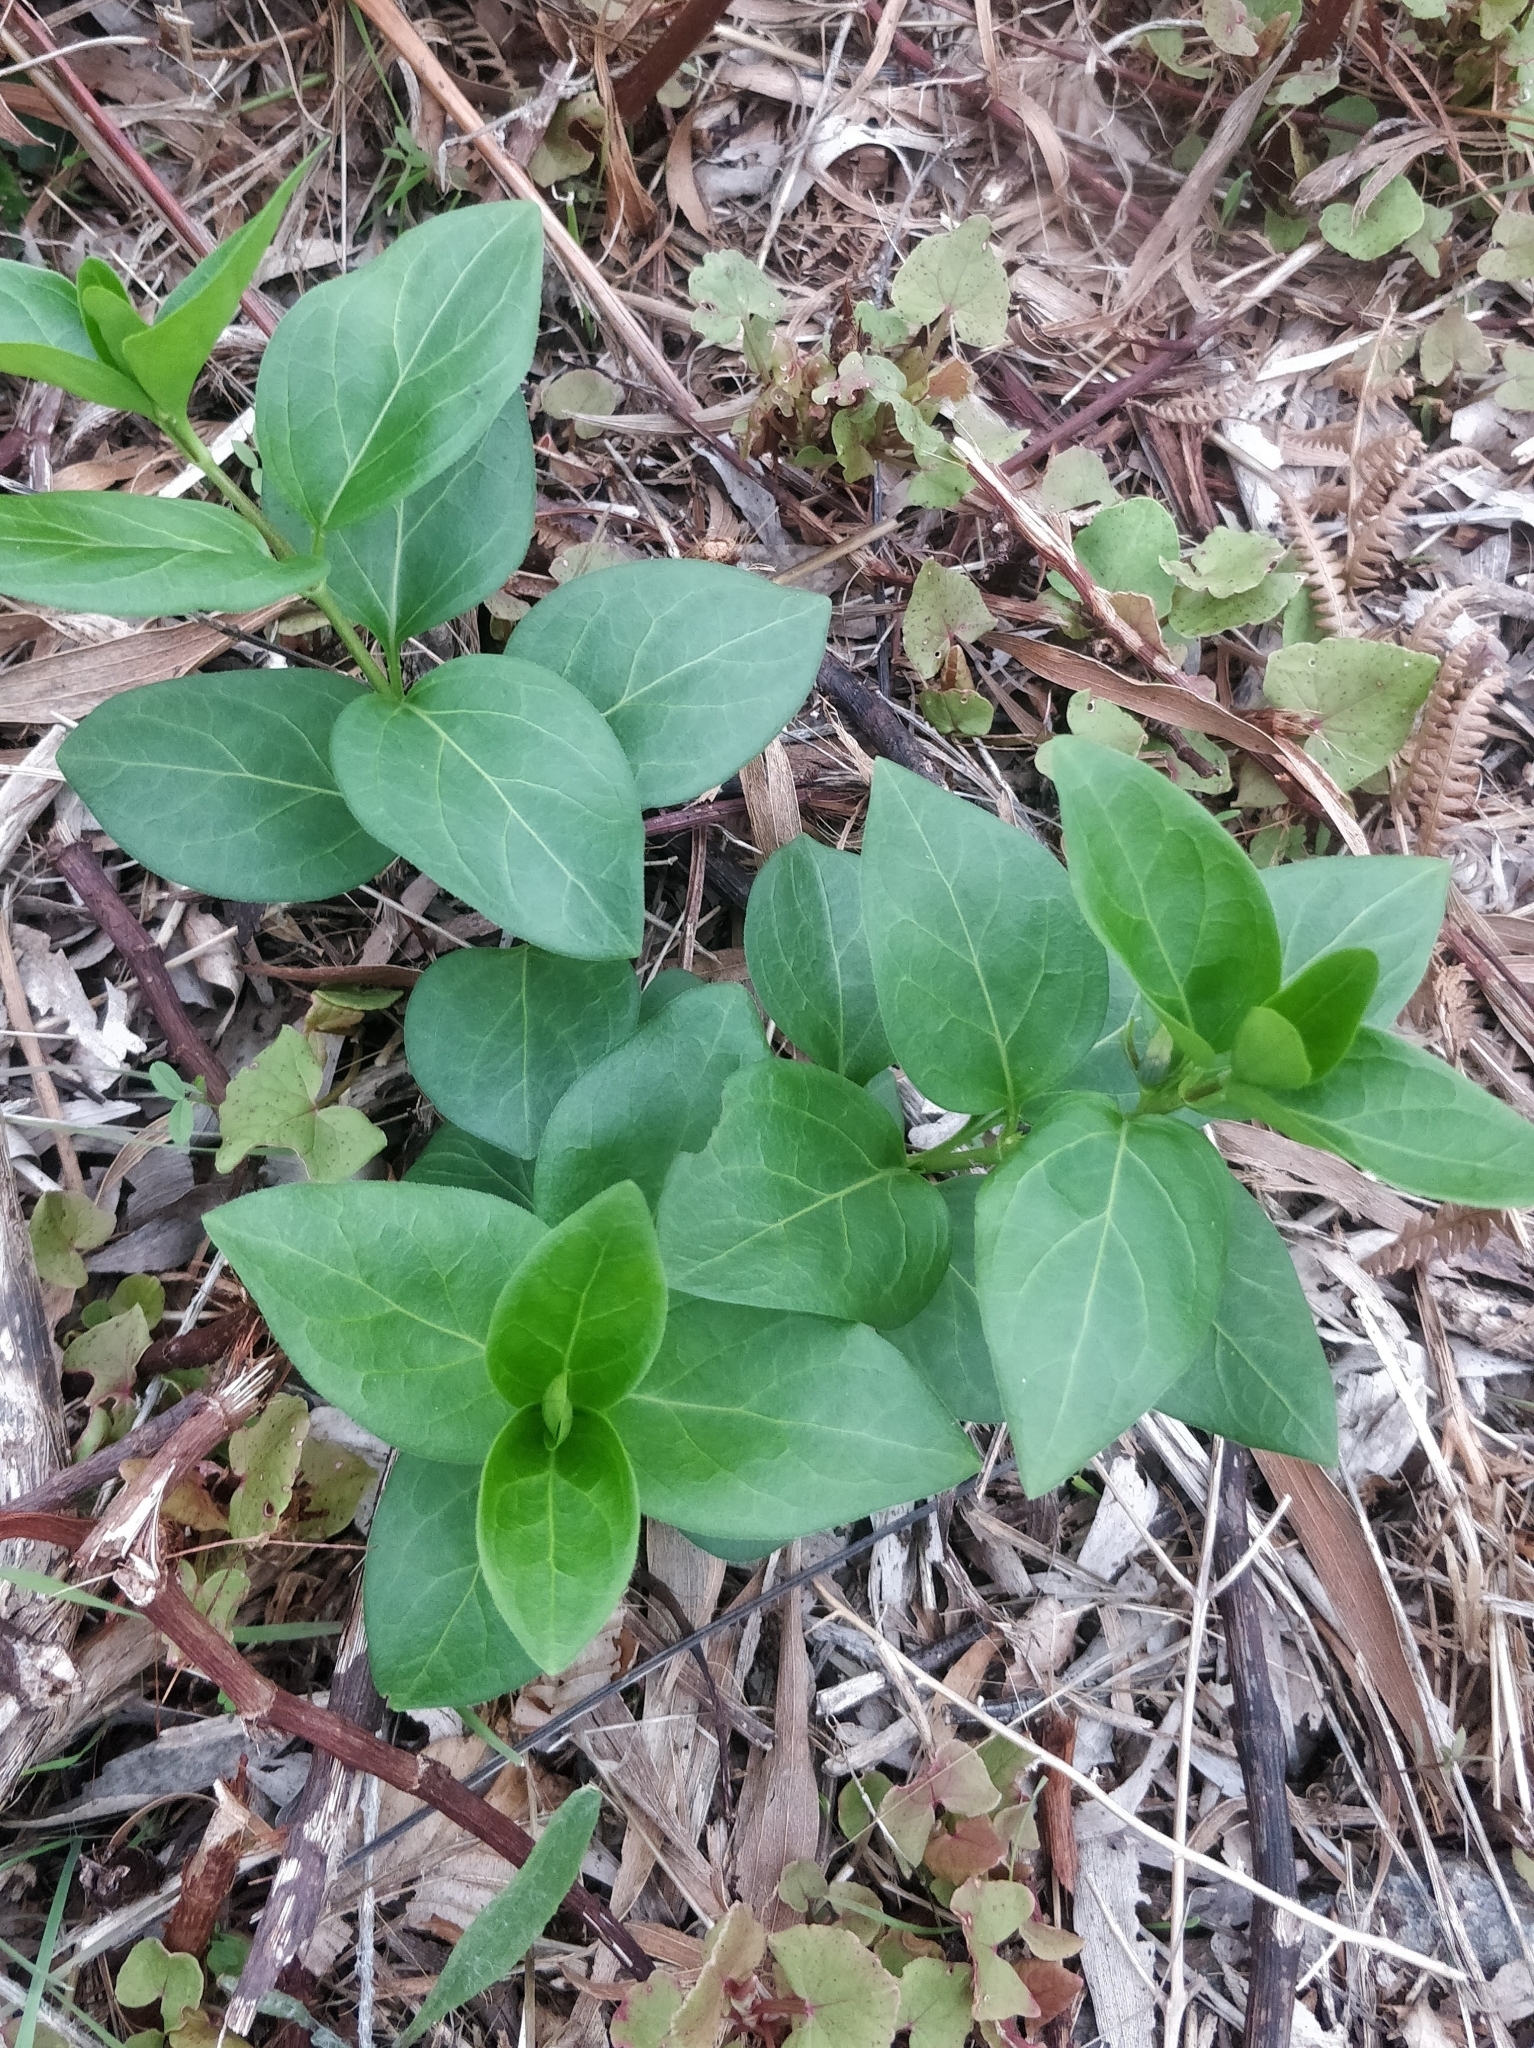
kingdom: Plantae
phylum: Tracheophyta
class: Magnoliopsida
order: Gentianales
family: Apocynaceae
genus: Vinca
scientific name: Vinca major
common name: Greater periwinkle
